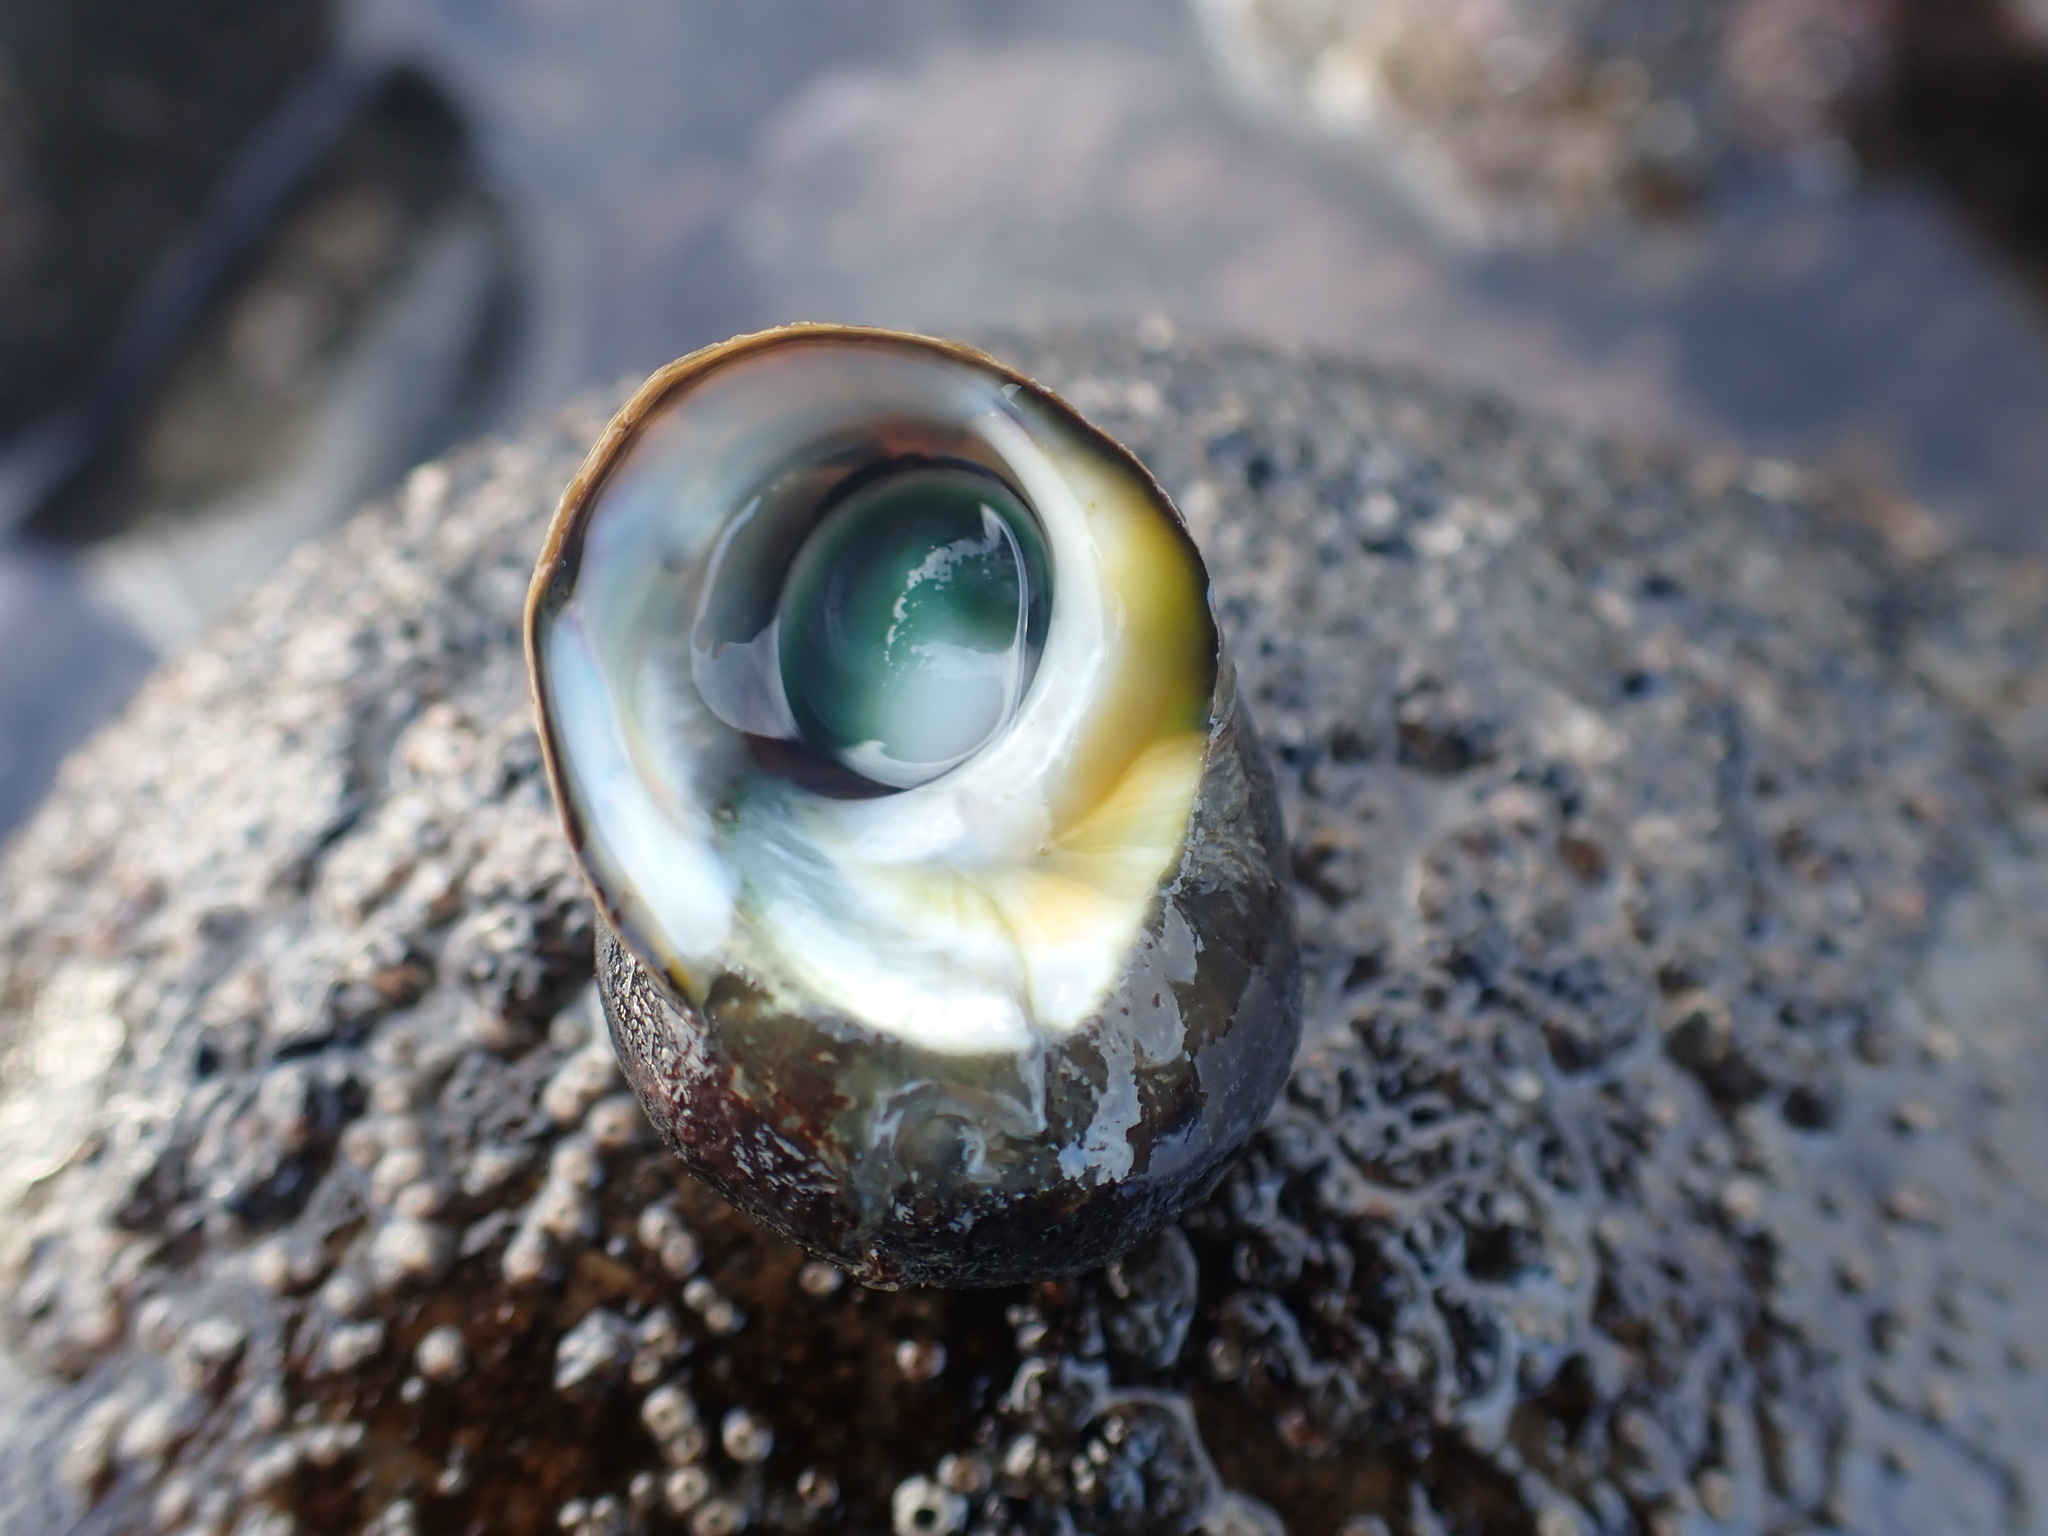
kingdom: Animalia
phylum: Mollusca
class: Gastropoda
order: Trochida
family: Turbinidae
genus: Lunella
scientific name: Lunella smaragda
